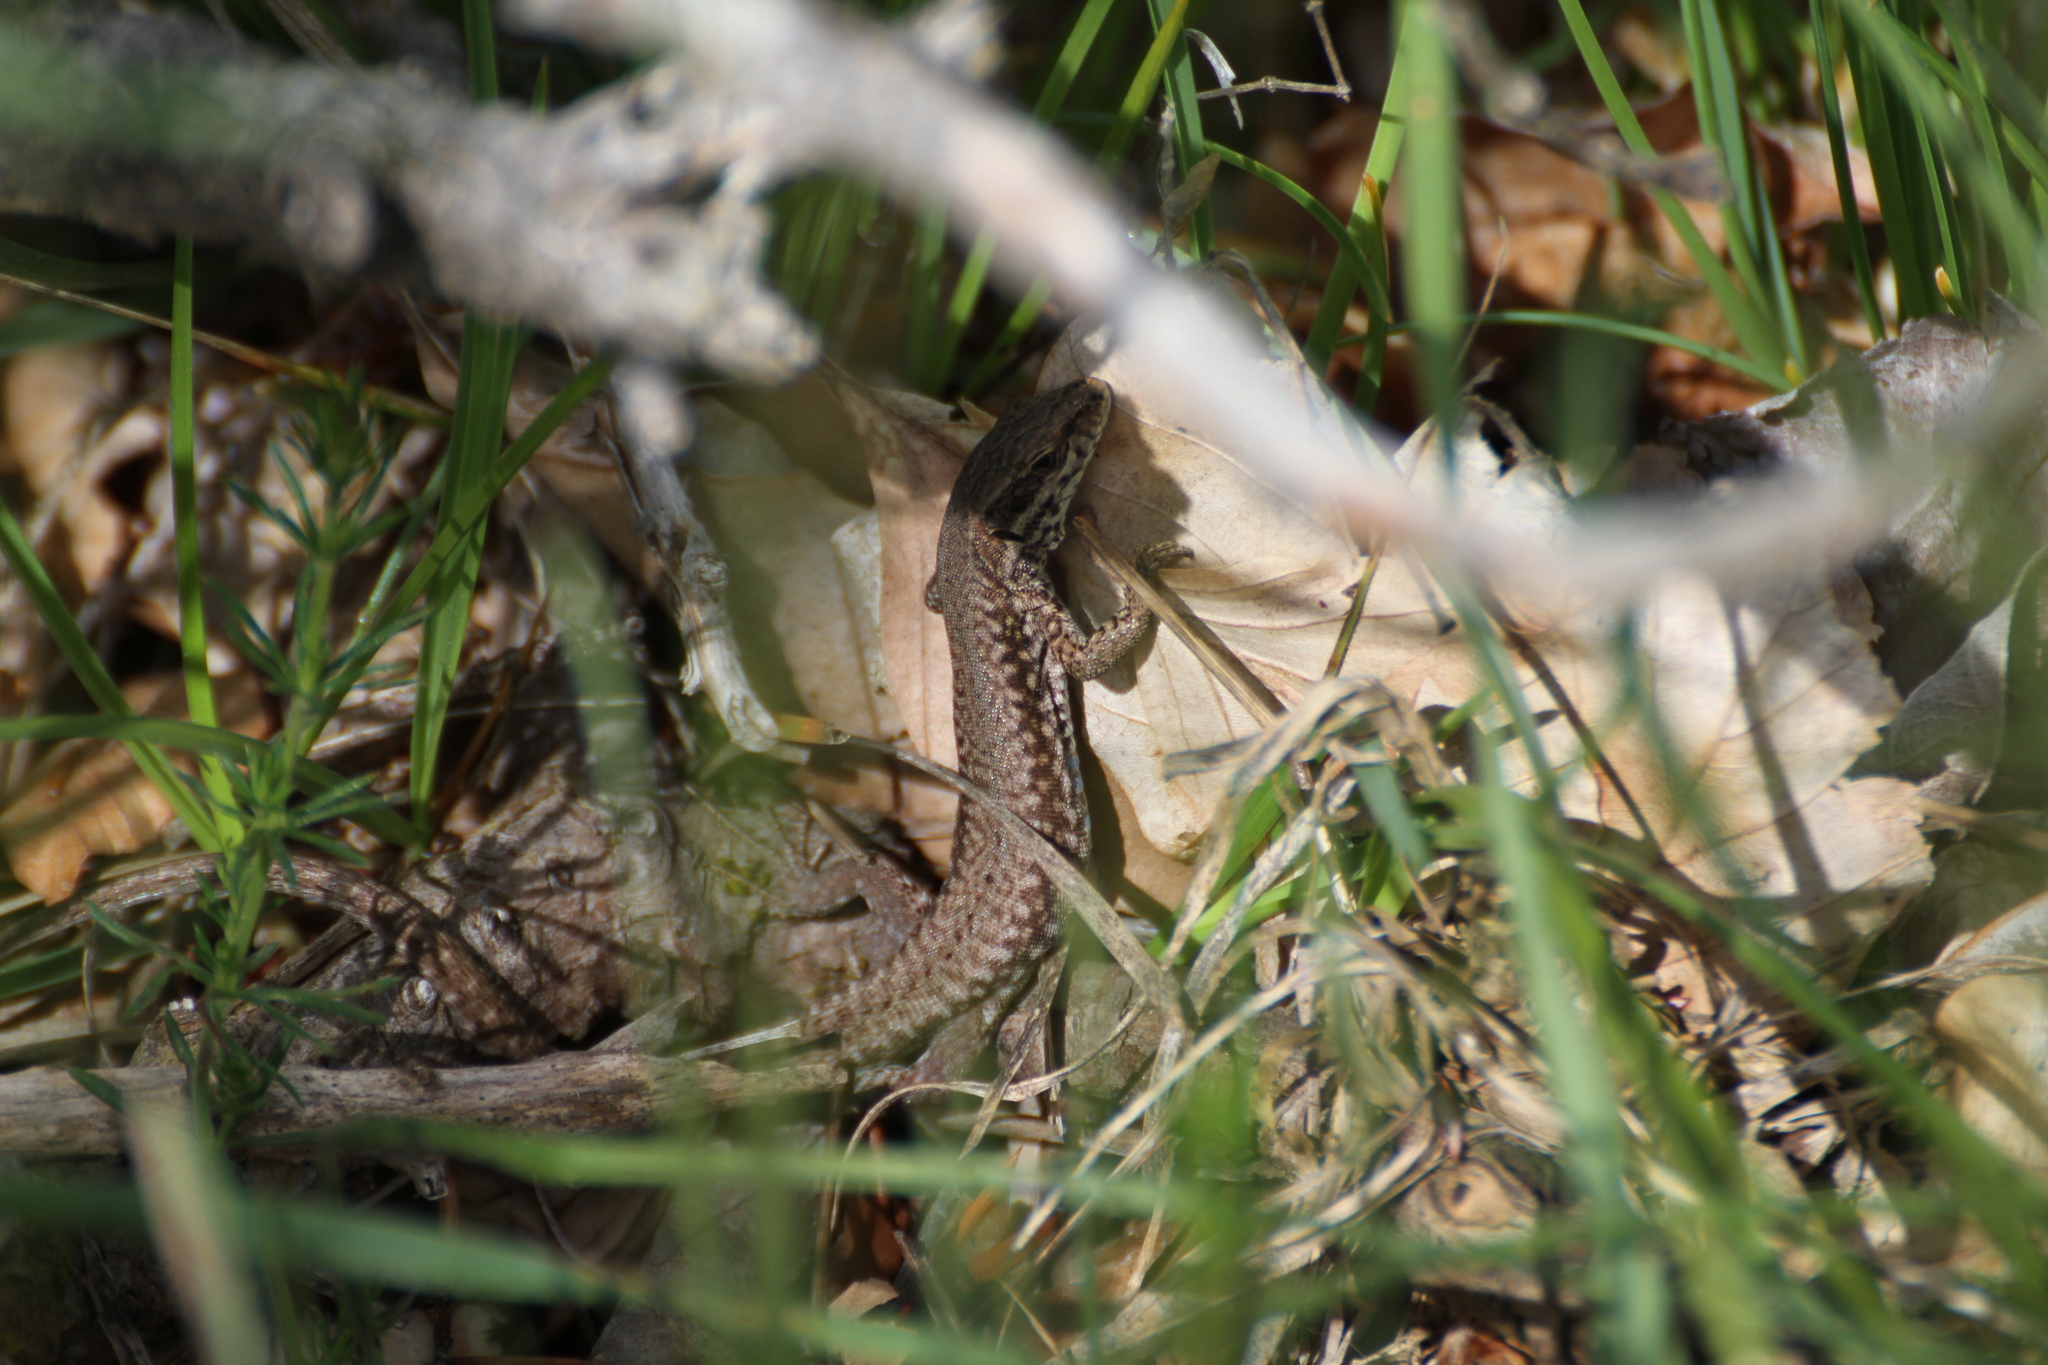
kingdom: Animalia
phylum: Chordata
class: Squamata
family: Lacertidae
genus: Podarcis
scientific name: Podarcis muralis
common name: Common wall lizard
